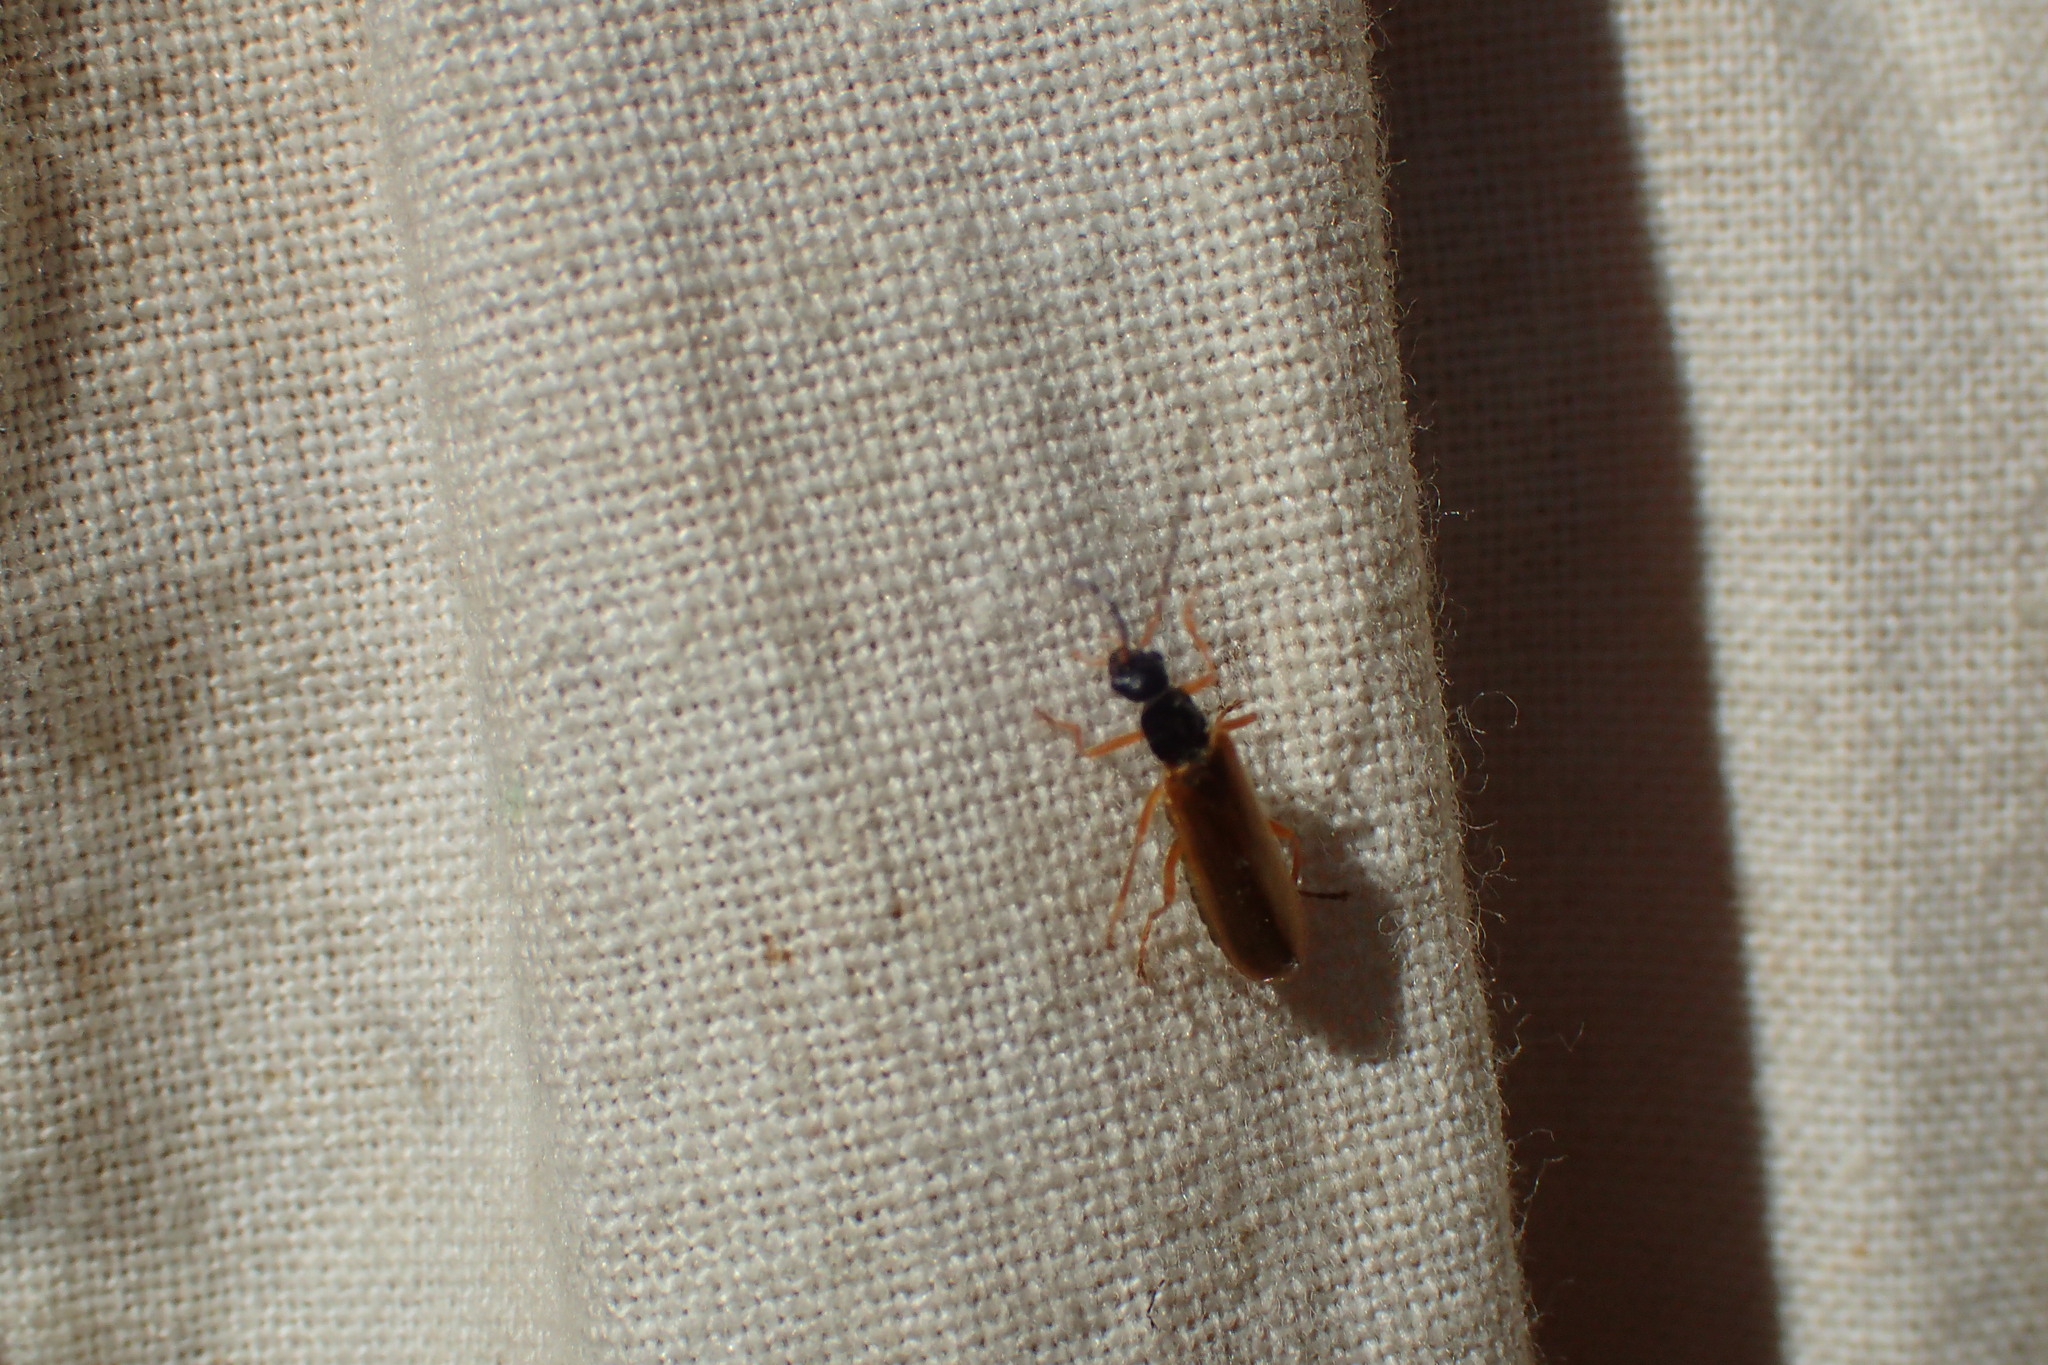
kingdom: Animalia
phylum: Arthropoda
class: Insecta
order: Coleoptera
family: Cantharidae
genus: Rhagonycha
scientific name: Rhagonycha lignosa
